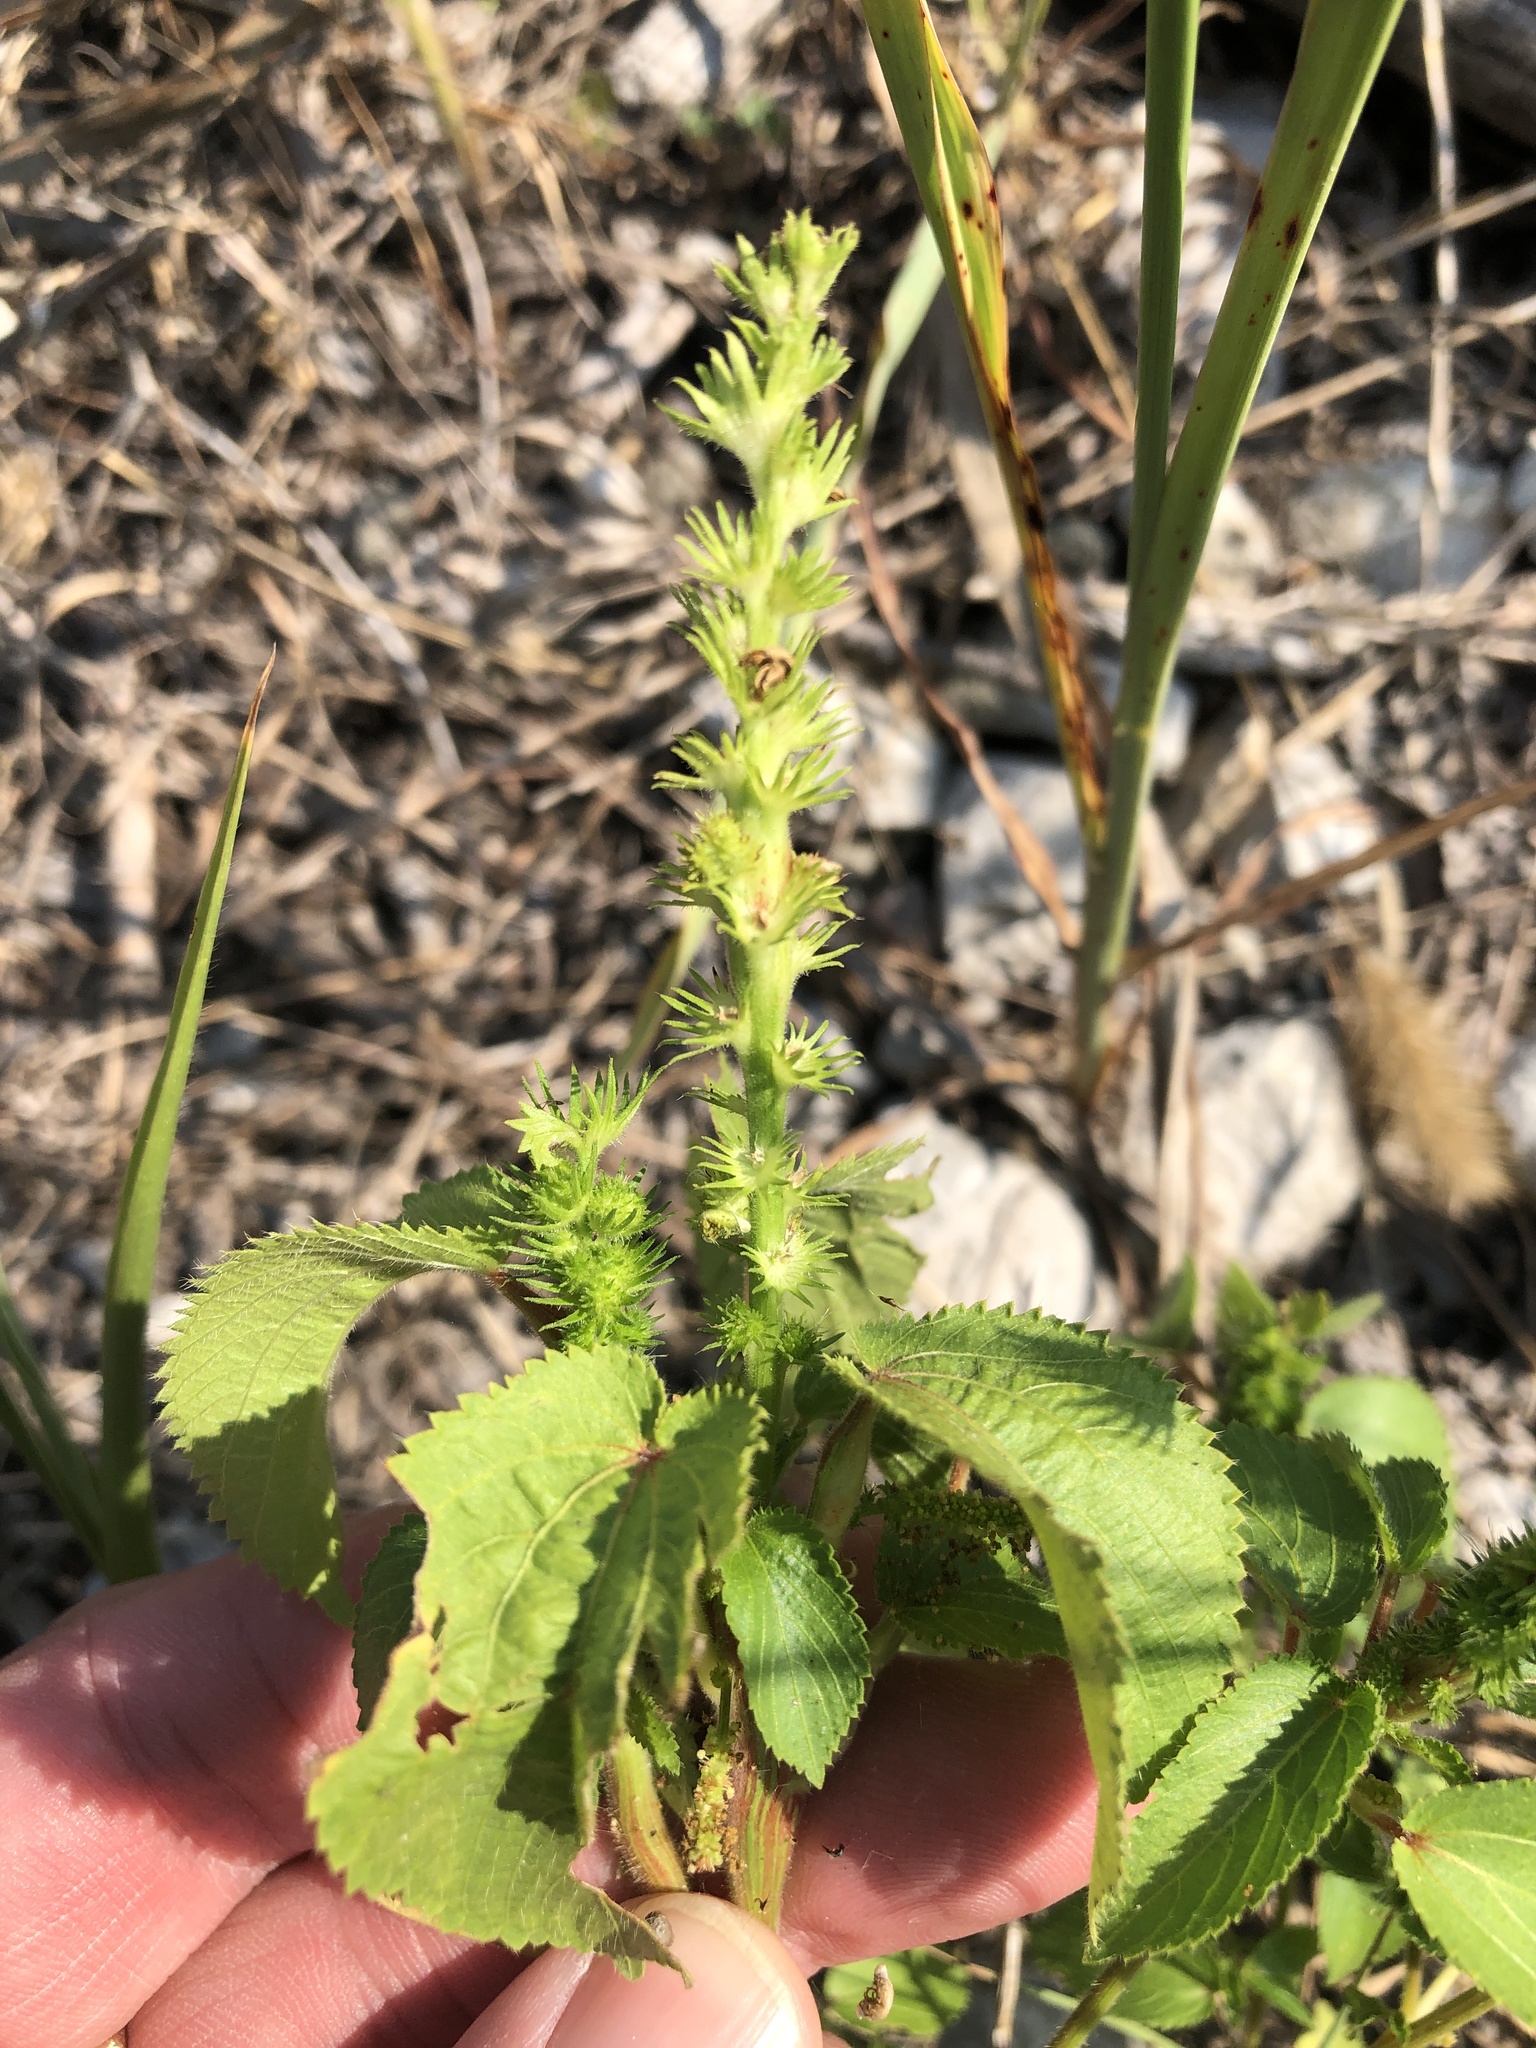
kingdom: Plantae
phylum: Tracheophyta
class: Magnoliopsida
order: Malpighiales
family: Euphorbiaceae
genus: Acalypha
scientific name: Acalypha ostryifolia
